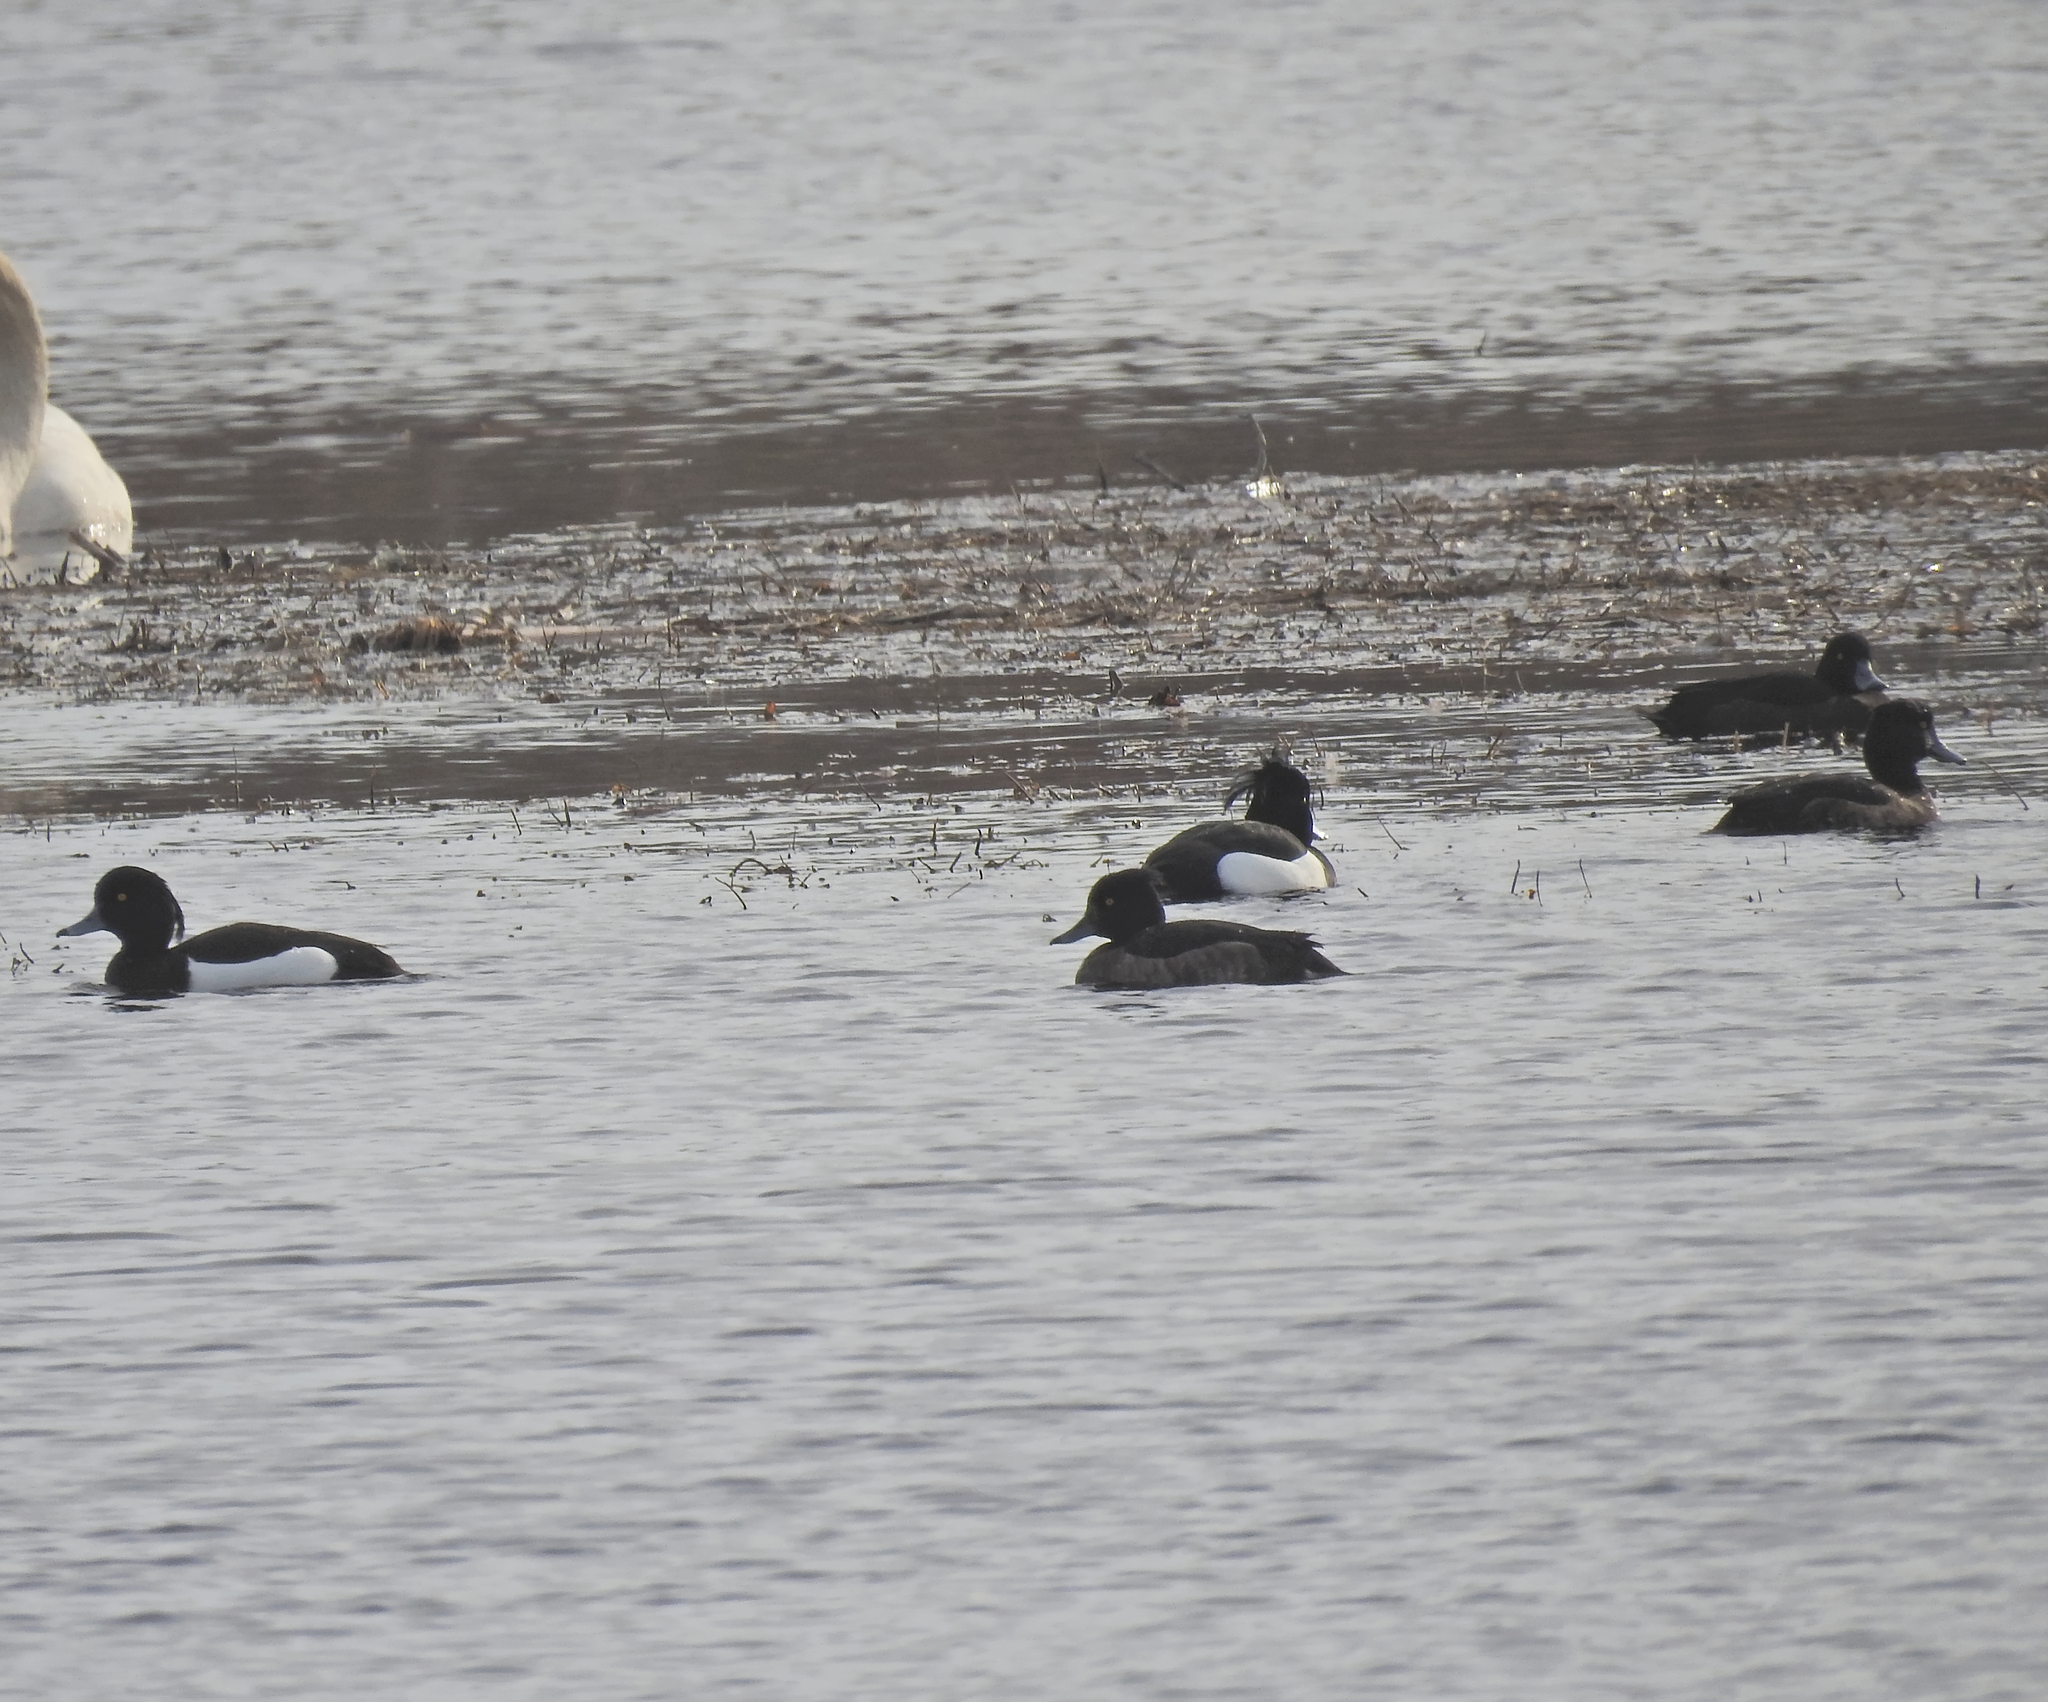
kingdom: Animalia
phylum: Chordata
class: Aves
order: Anseriformes
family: Anatidae
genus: Aythya
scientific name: Aythya fuligula
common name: Tufted duck
